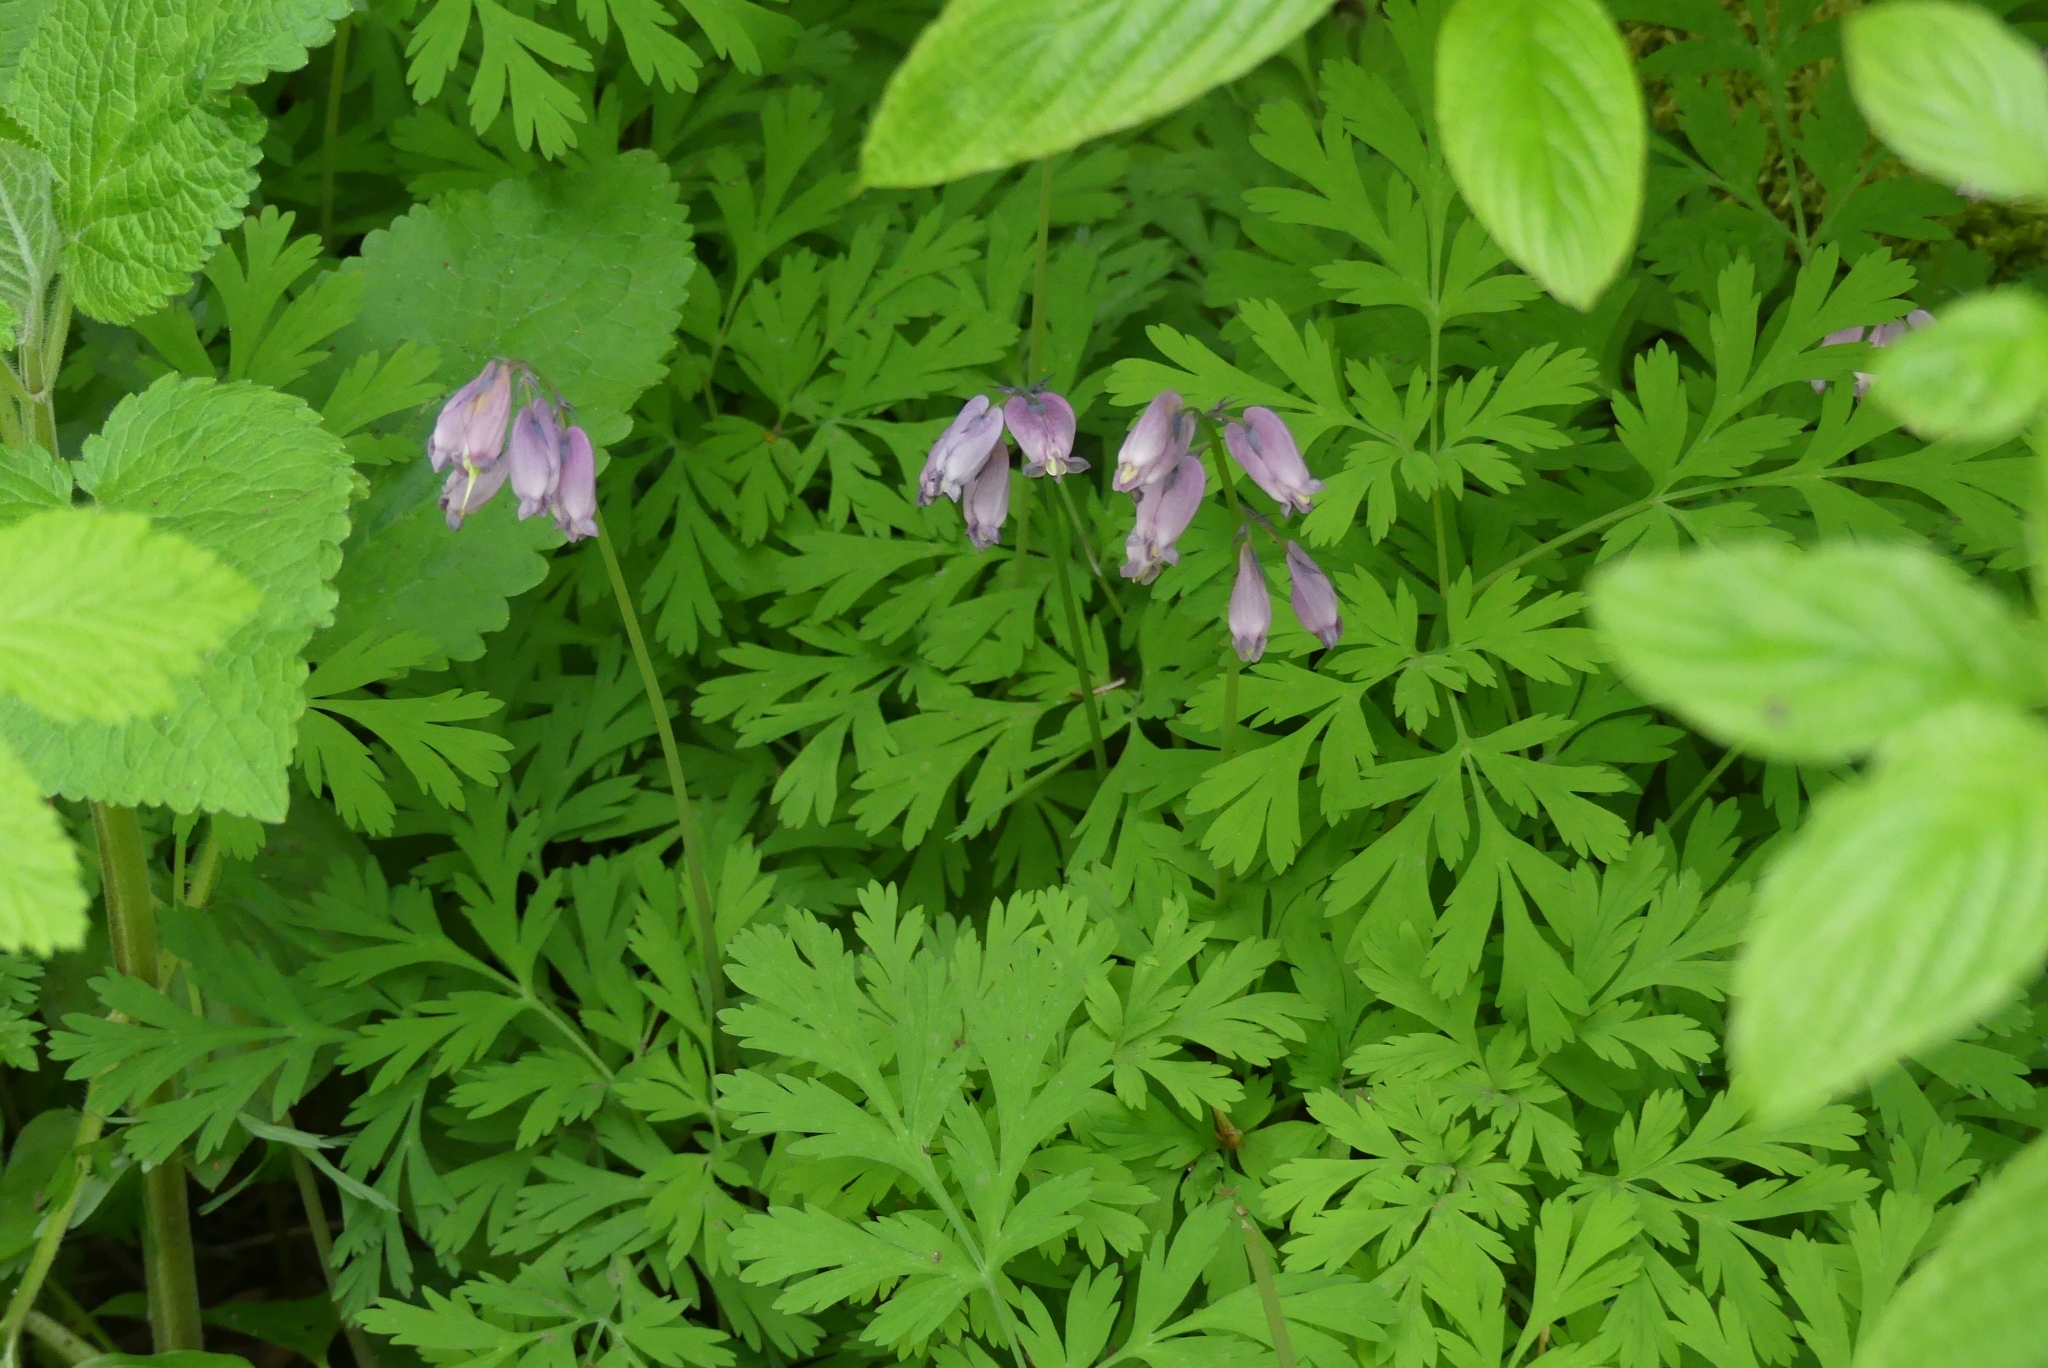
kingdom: Plantae
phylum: Tracheophyta
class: Magnoliopsida
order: Ranunculales
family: Papaveraceae
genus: Dicentra
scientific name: Dicentra formosa
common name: Bleeding-heart
